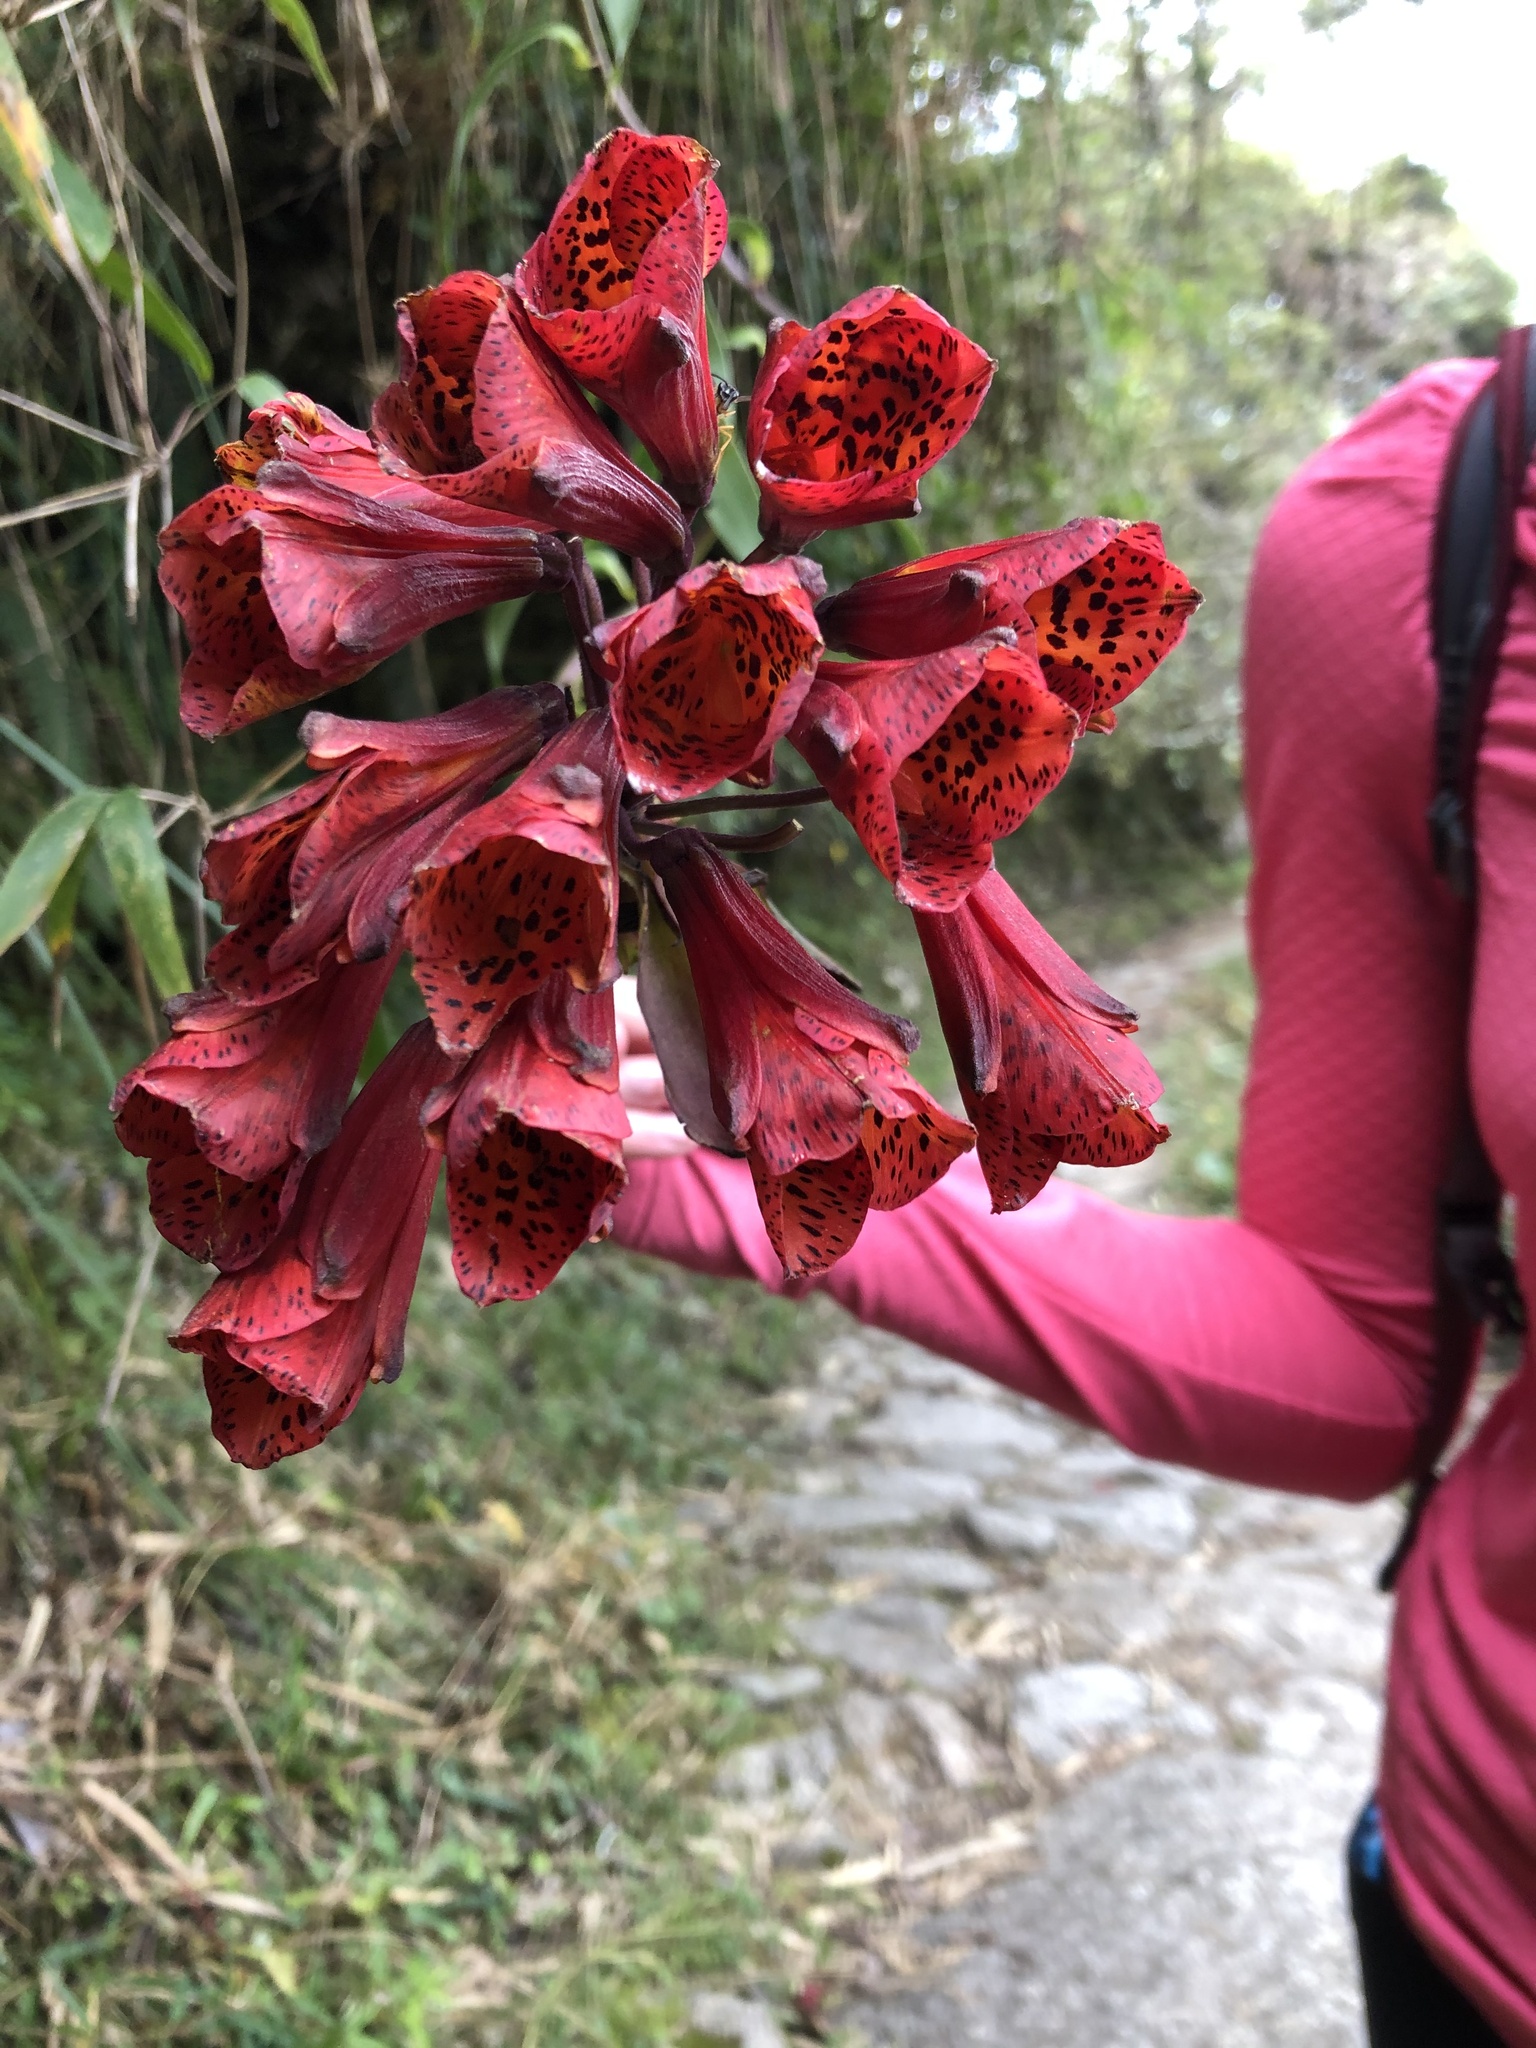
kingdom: Plantae
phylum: Tracheophyta
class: Liliopsida
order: Liliales
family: Alstroemeriaceae
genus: Bomarea
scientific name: Bomarea formosissima
